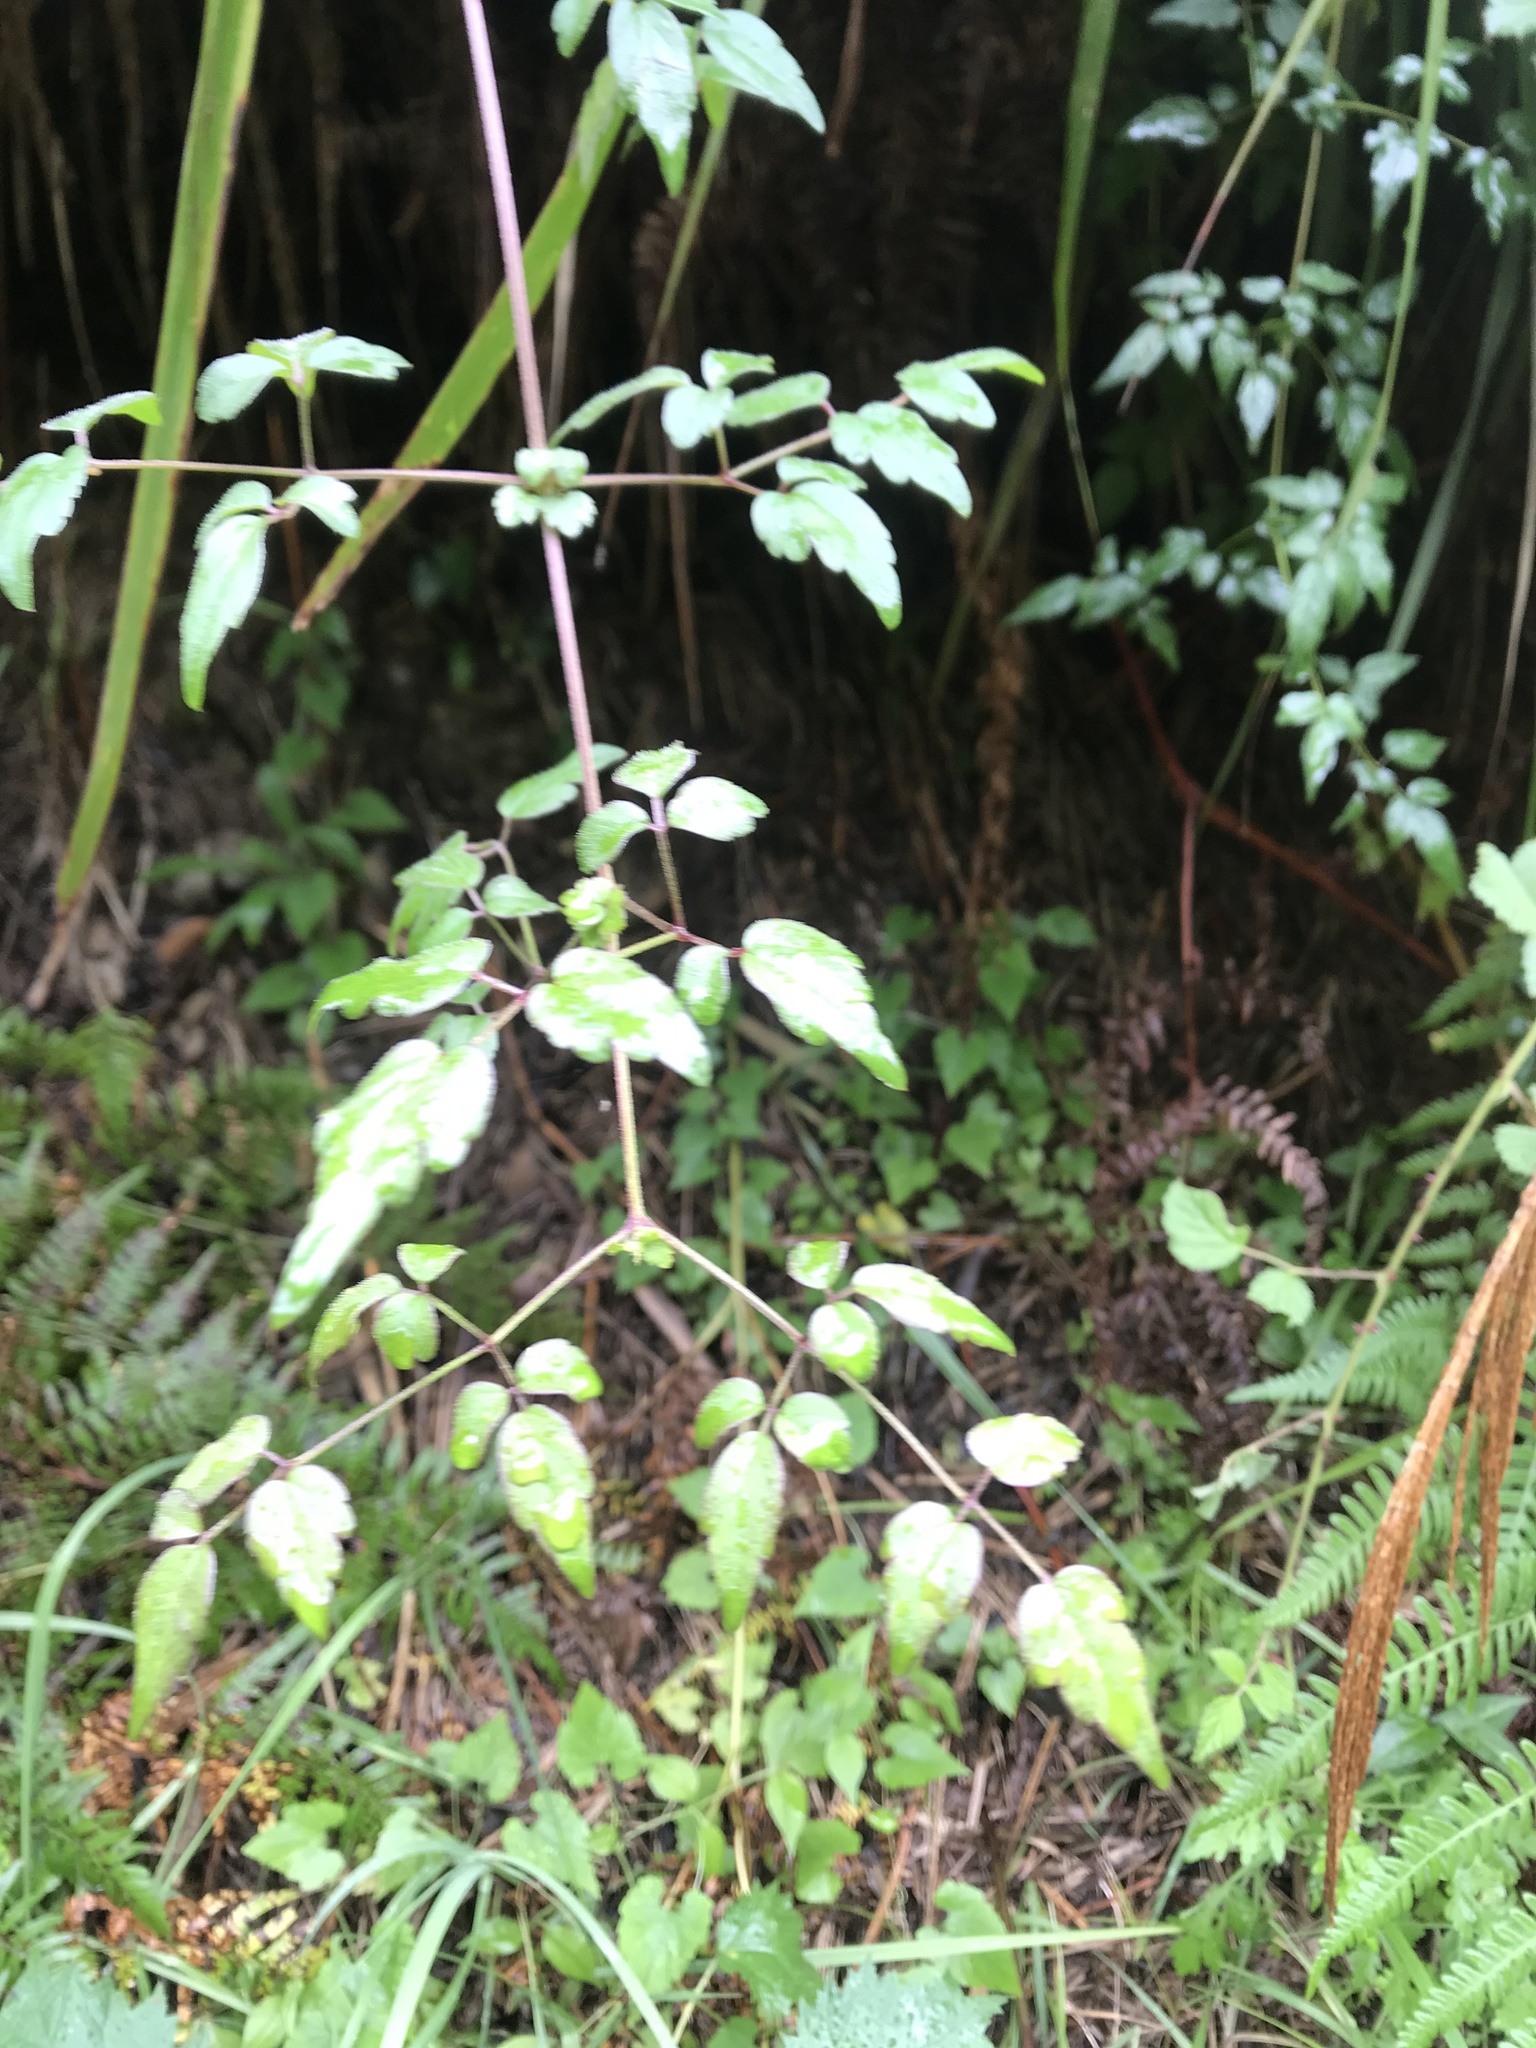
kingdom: Plantae
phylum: Tracheophyta
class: Magnoliopsida
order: Ranunculales
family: Ranunculaceae
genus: Clematis
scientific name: Clematis grata
